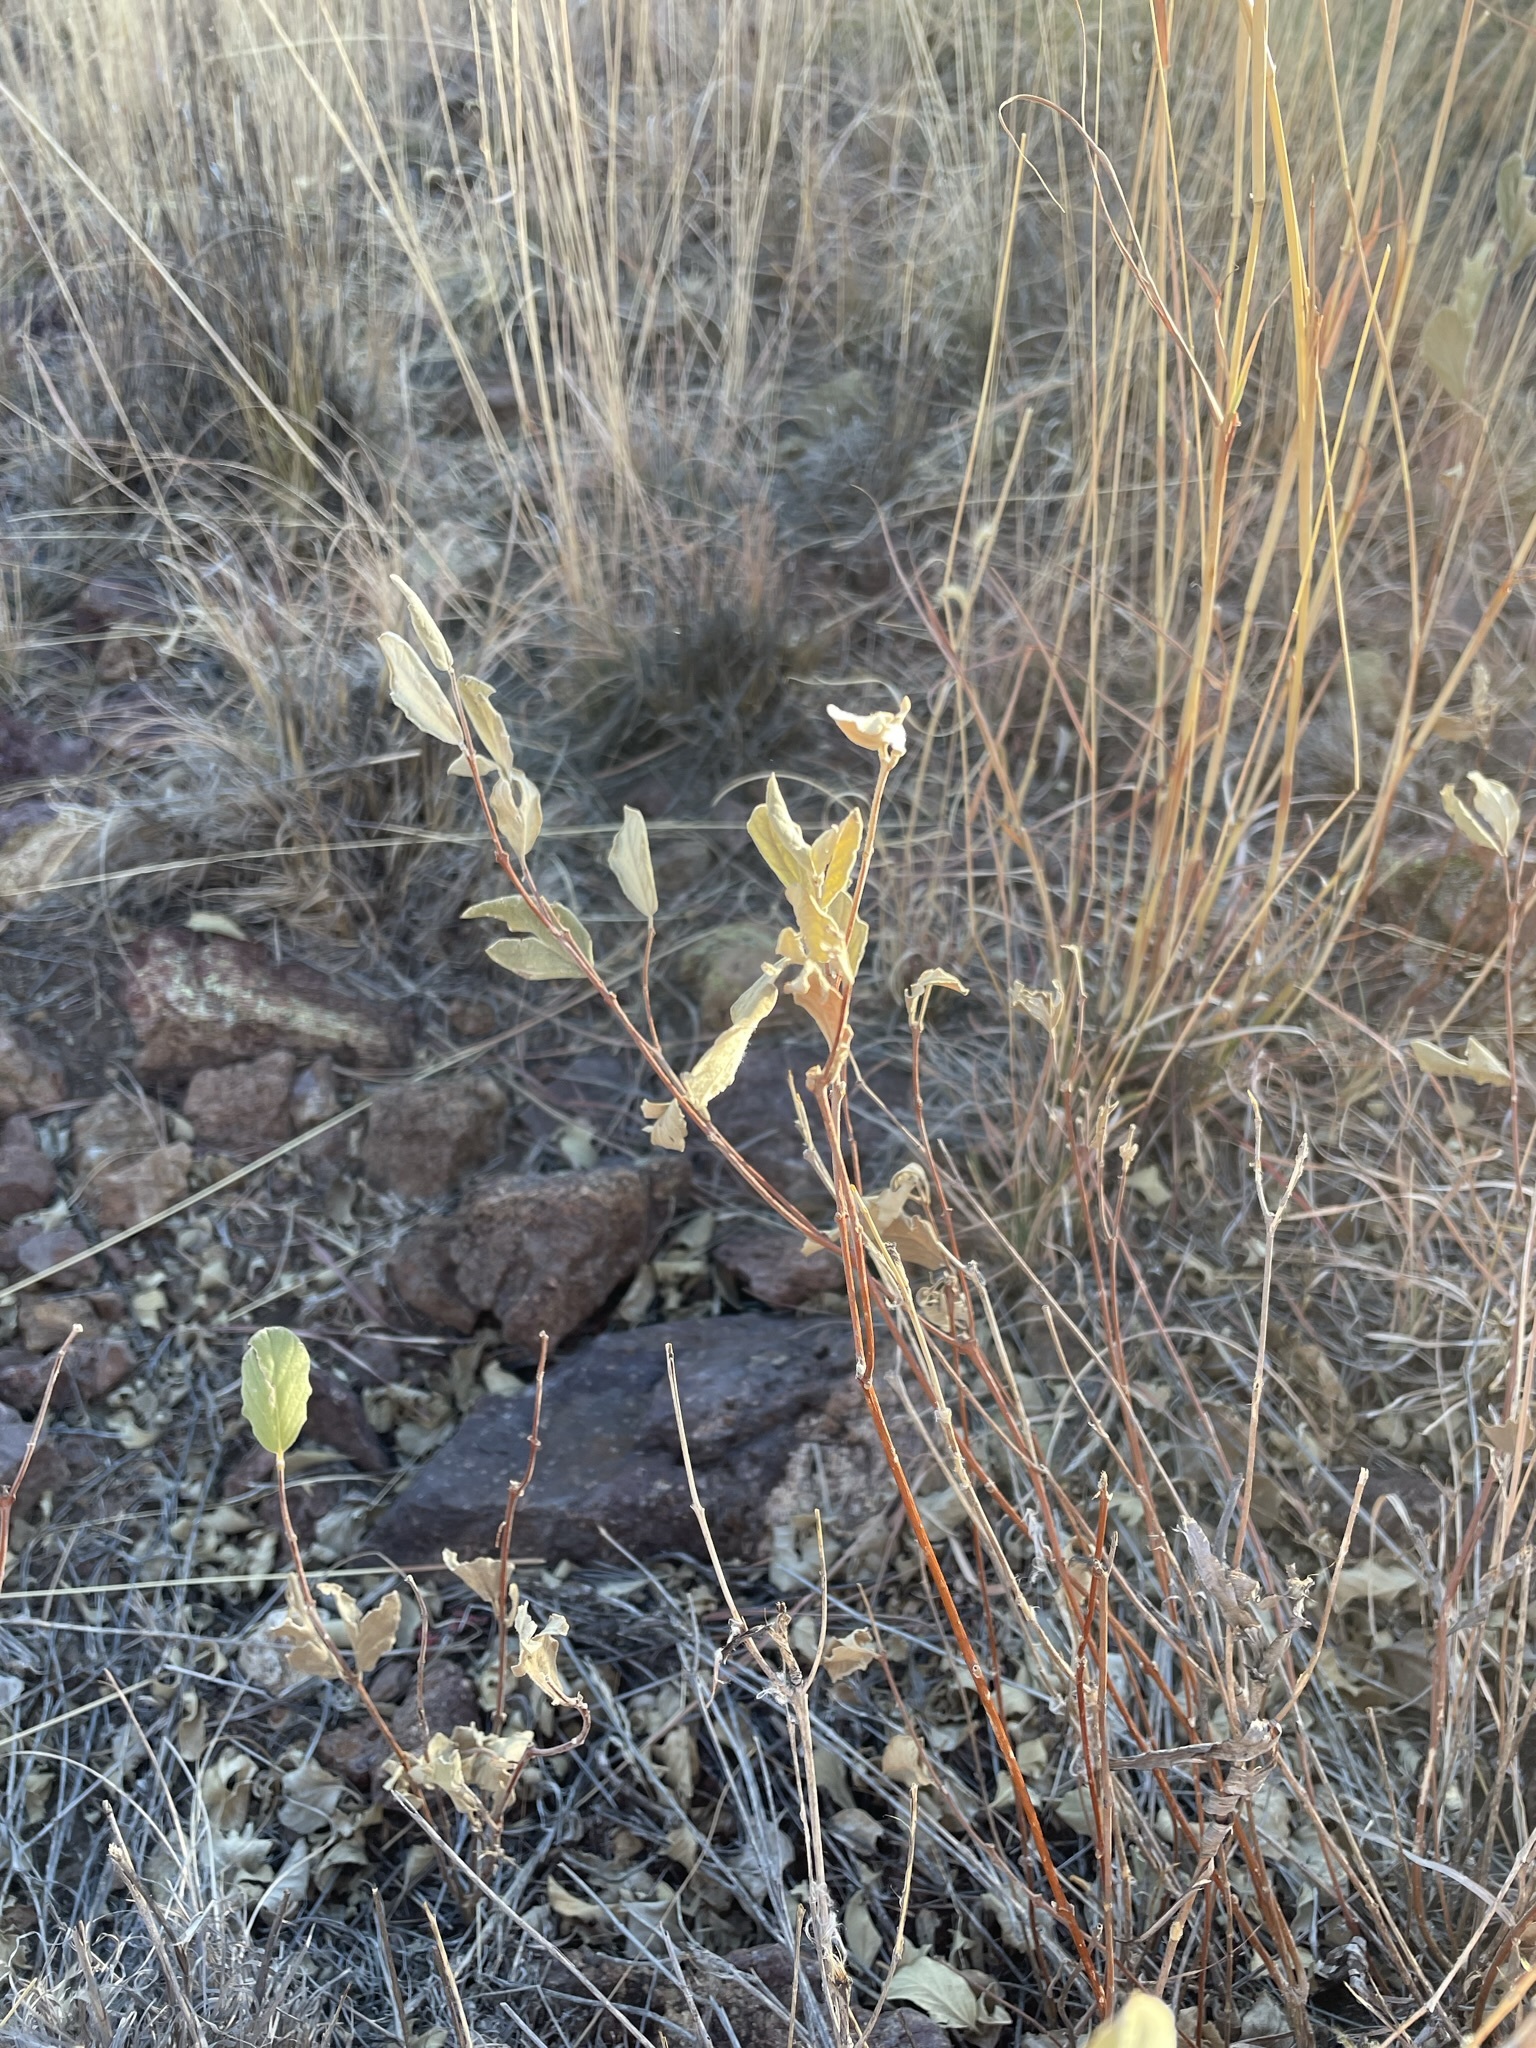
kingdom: Plantae
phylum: Tracheophyta
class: Magnoliopsida
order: Gentianales
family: Apocynaceae
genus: Mandevilla
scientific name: Mandevilla macrosiphon
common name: Plateau rocktrumpet
